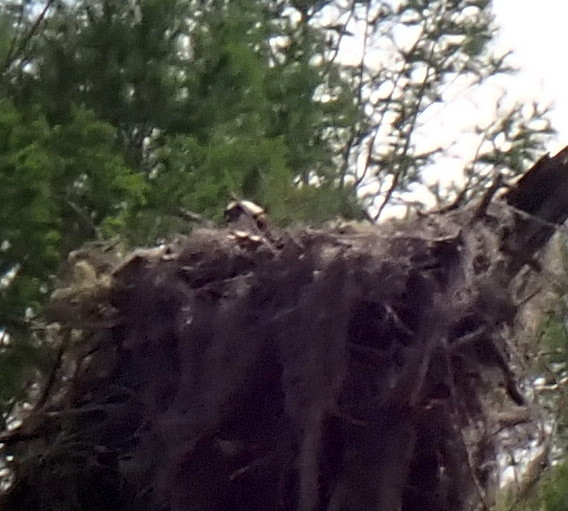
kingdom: Animalia
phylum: Chordata
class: Aves
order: Accipitriformes
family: Pandionidae
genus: Pandion
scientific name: Pandion haliaetus
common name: Osprey
